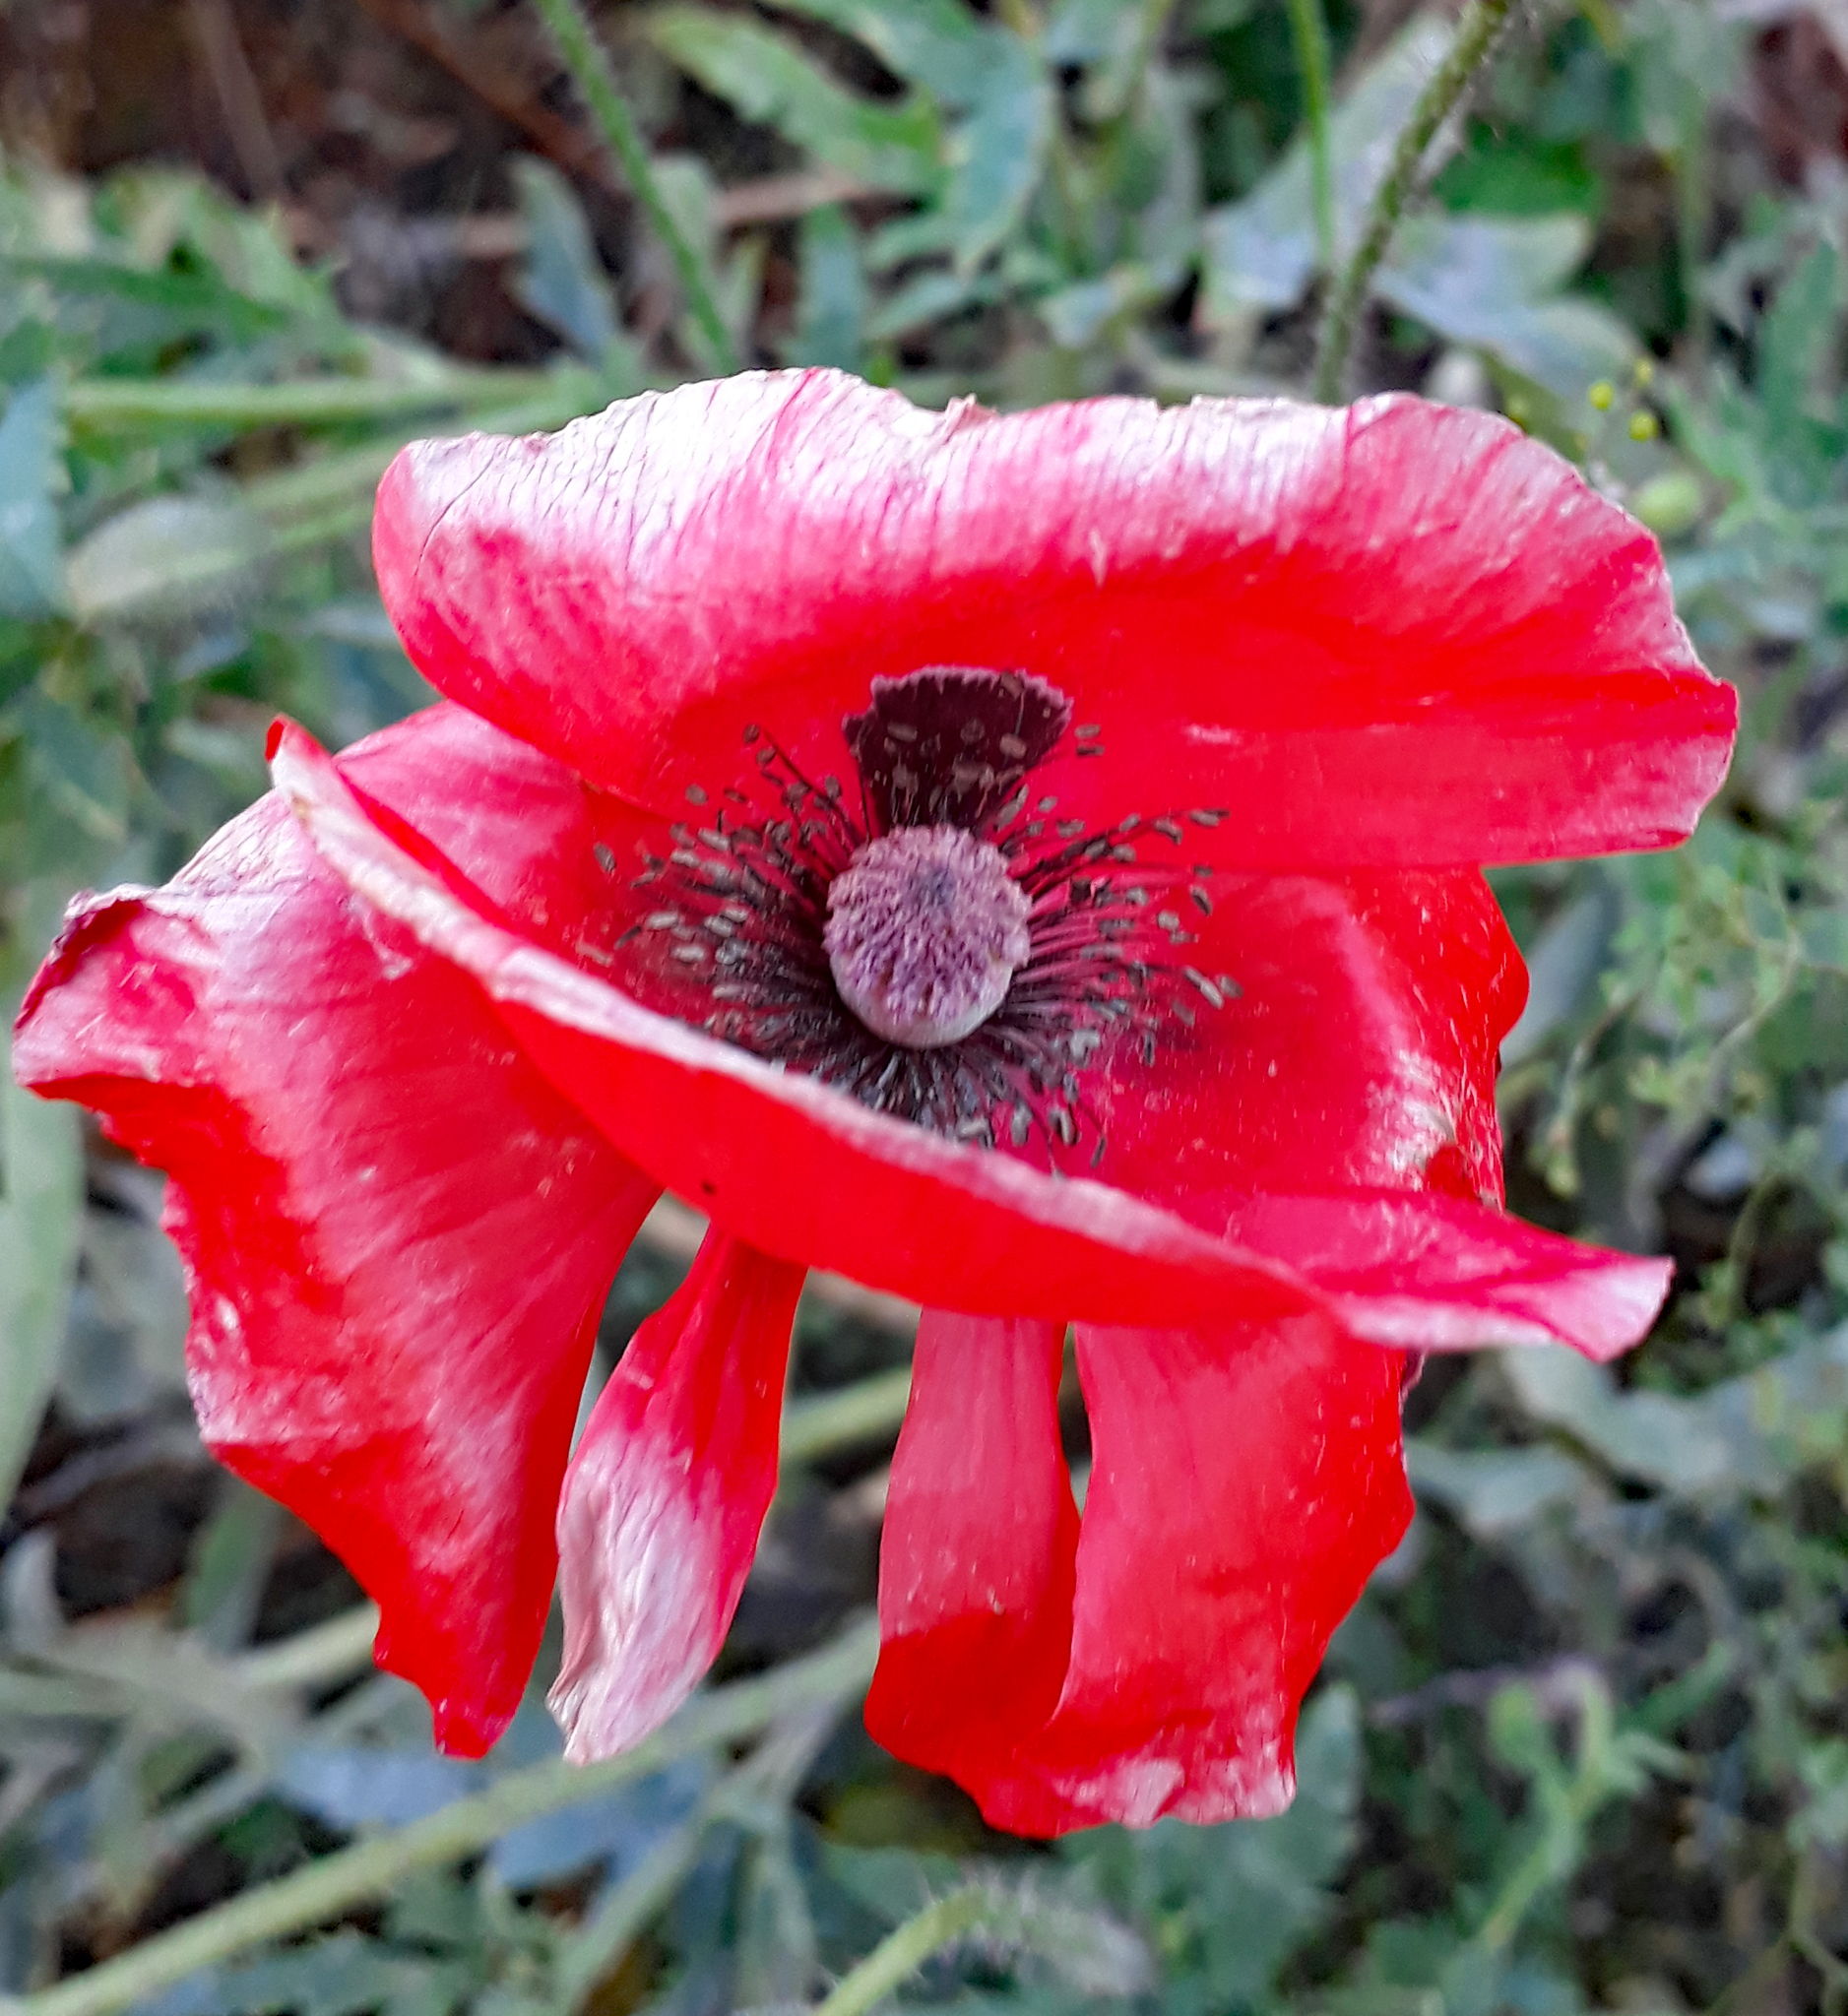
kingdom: Plantae
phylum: Tracheophyta
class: Magnoliopsida
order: Ranunculales
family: Papaveraceae
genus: Papaver
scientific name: Papaver rhoeas
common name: Corn poppy
